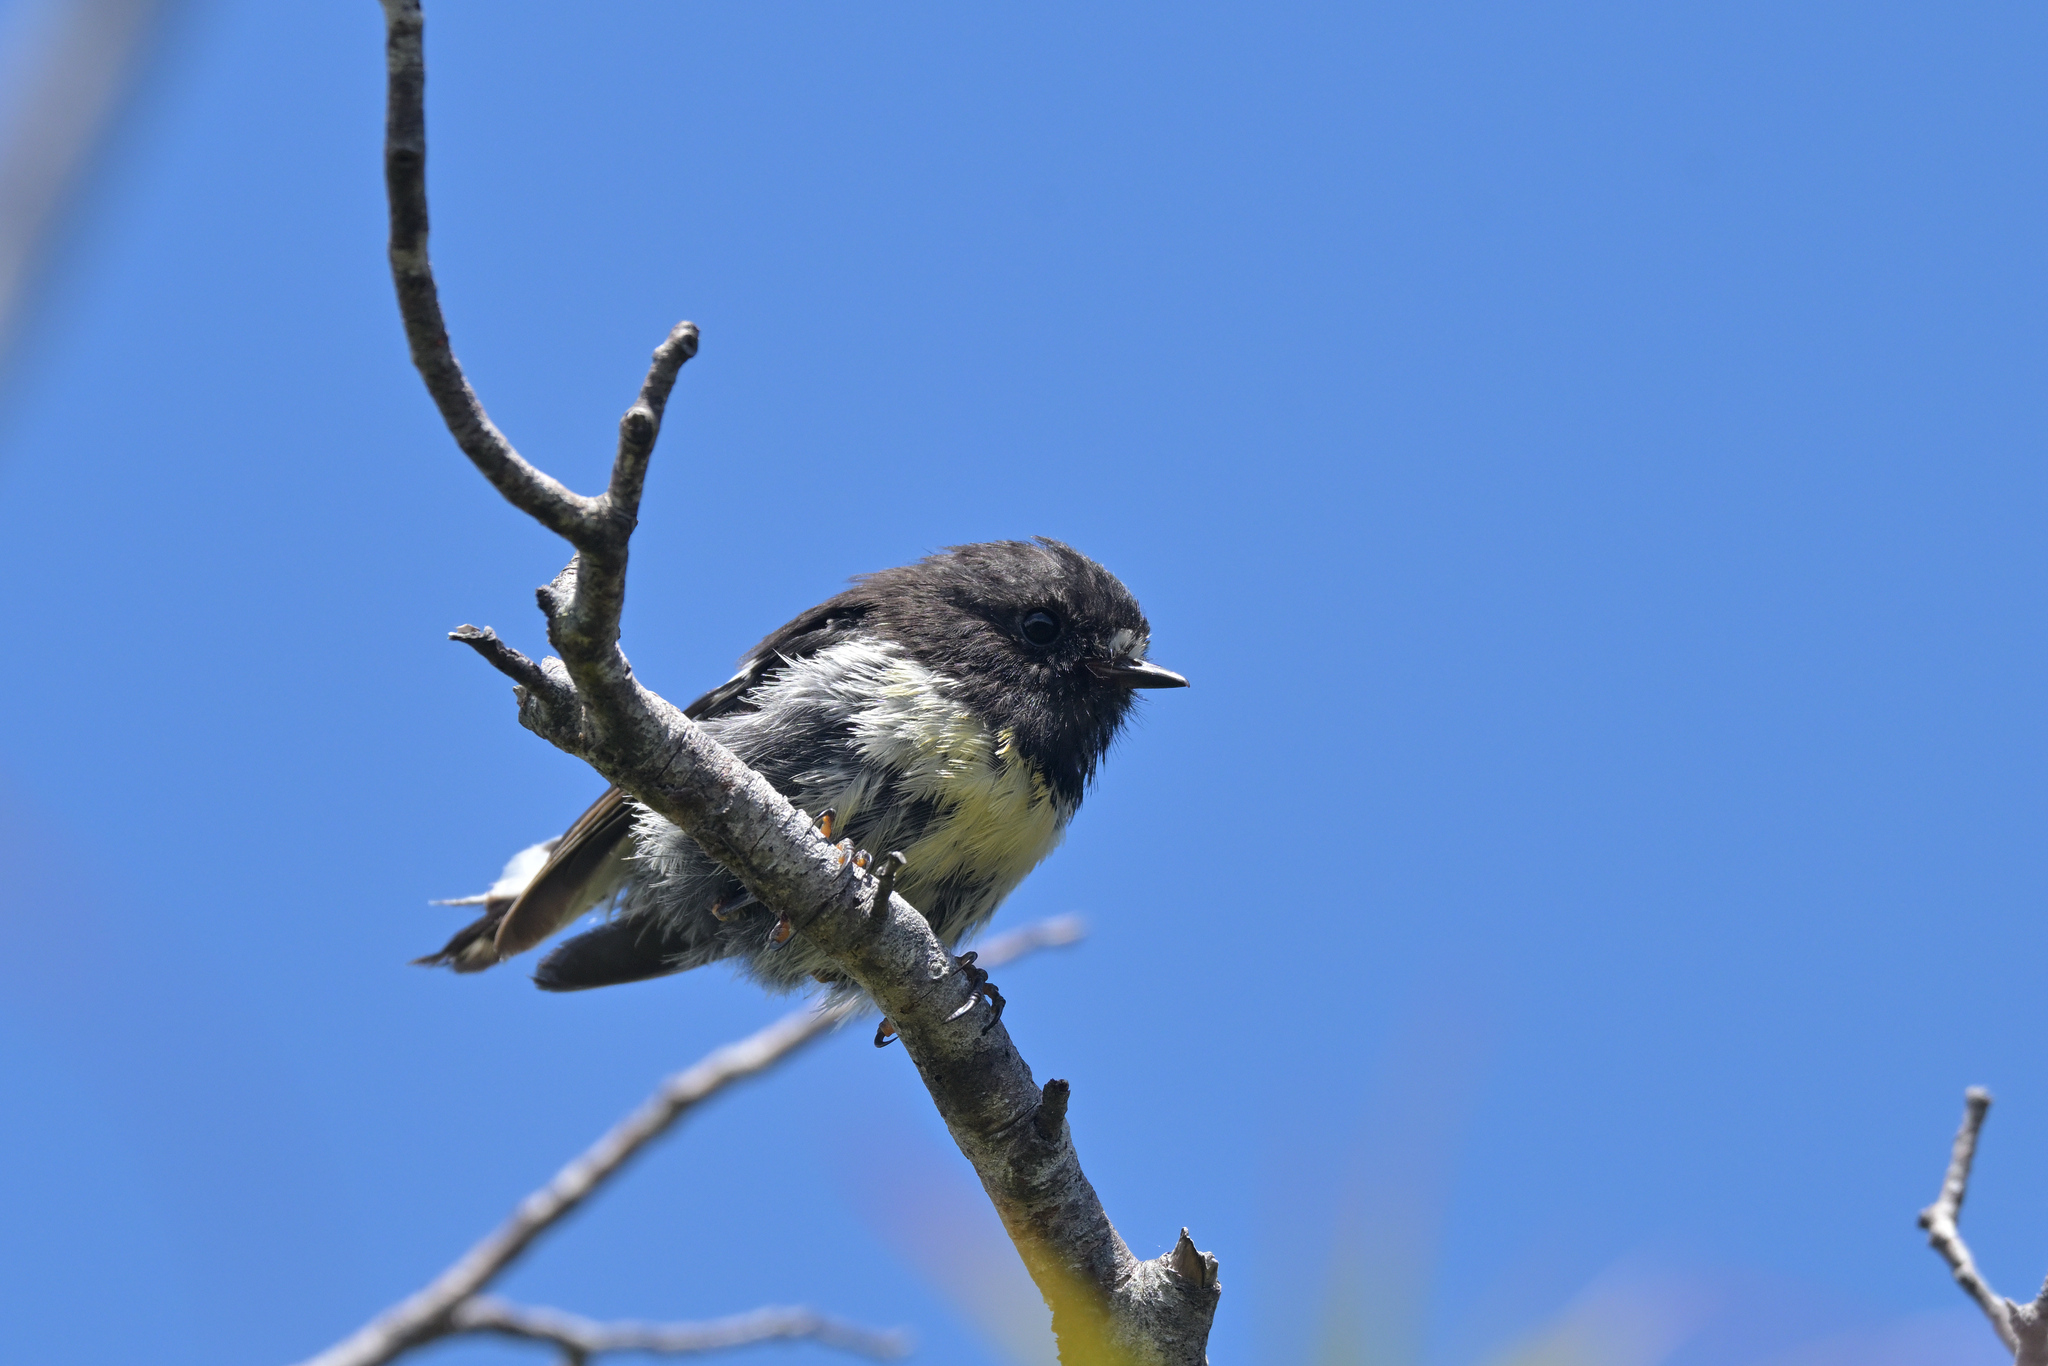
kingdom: Animalia
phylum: Chordata
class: Aves
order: Passeriformes
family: Petroicidae
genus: Petroica
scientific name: Petroica macrocephala
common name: Tomtit
